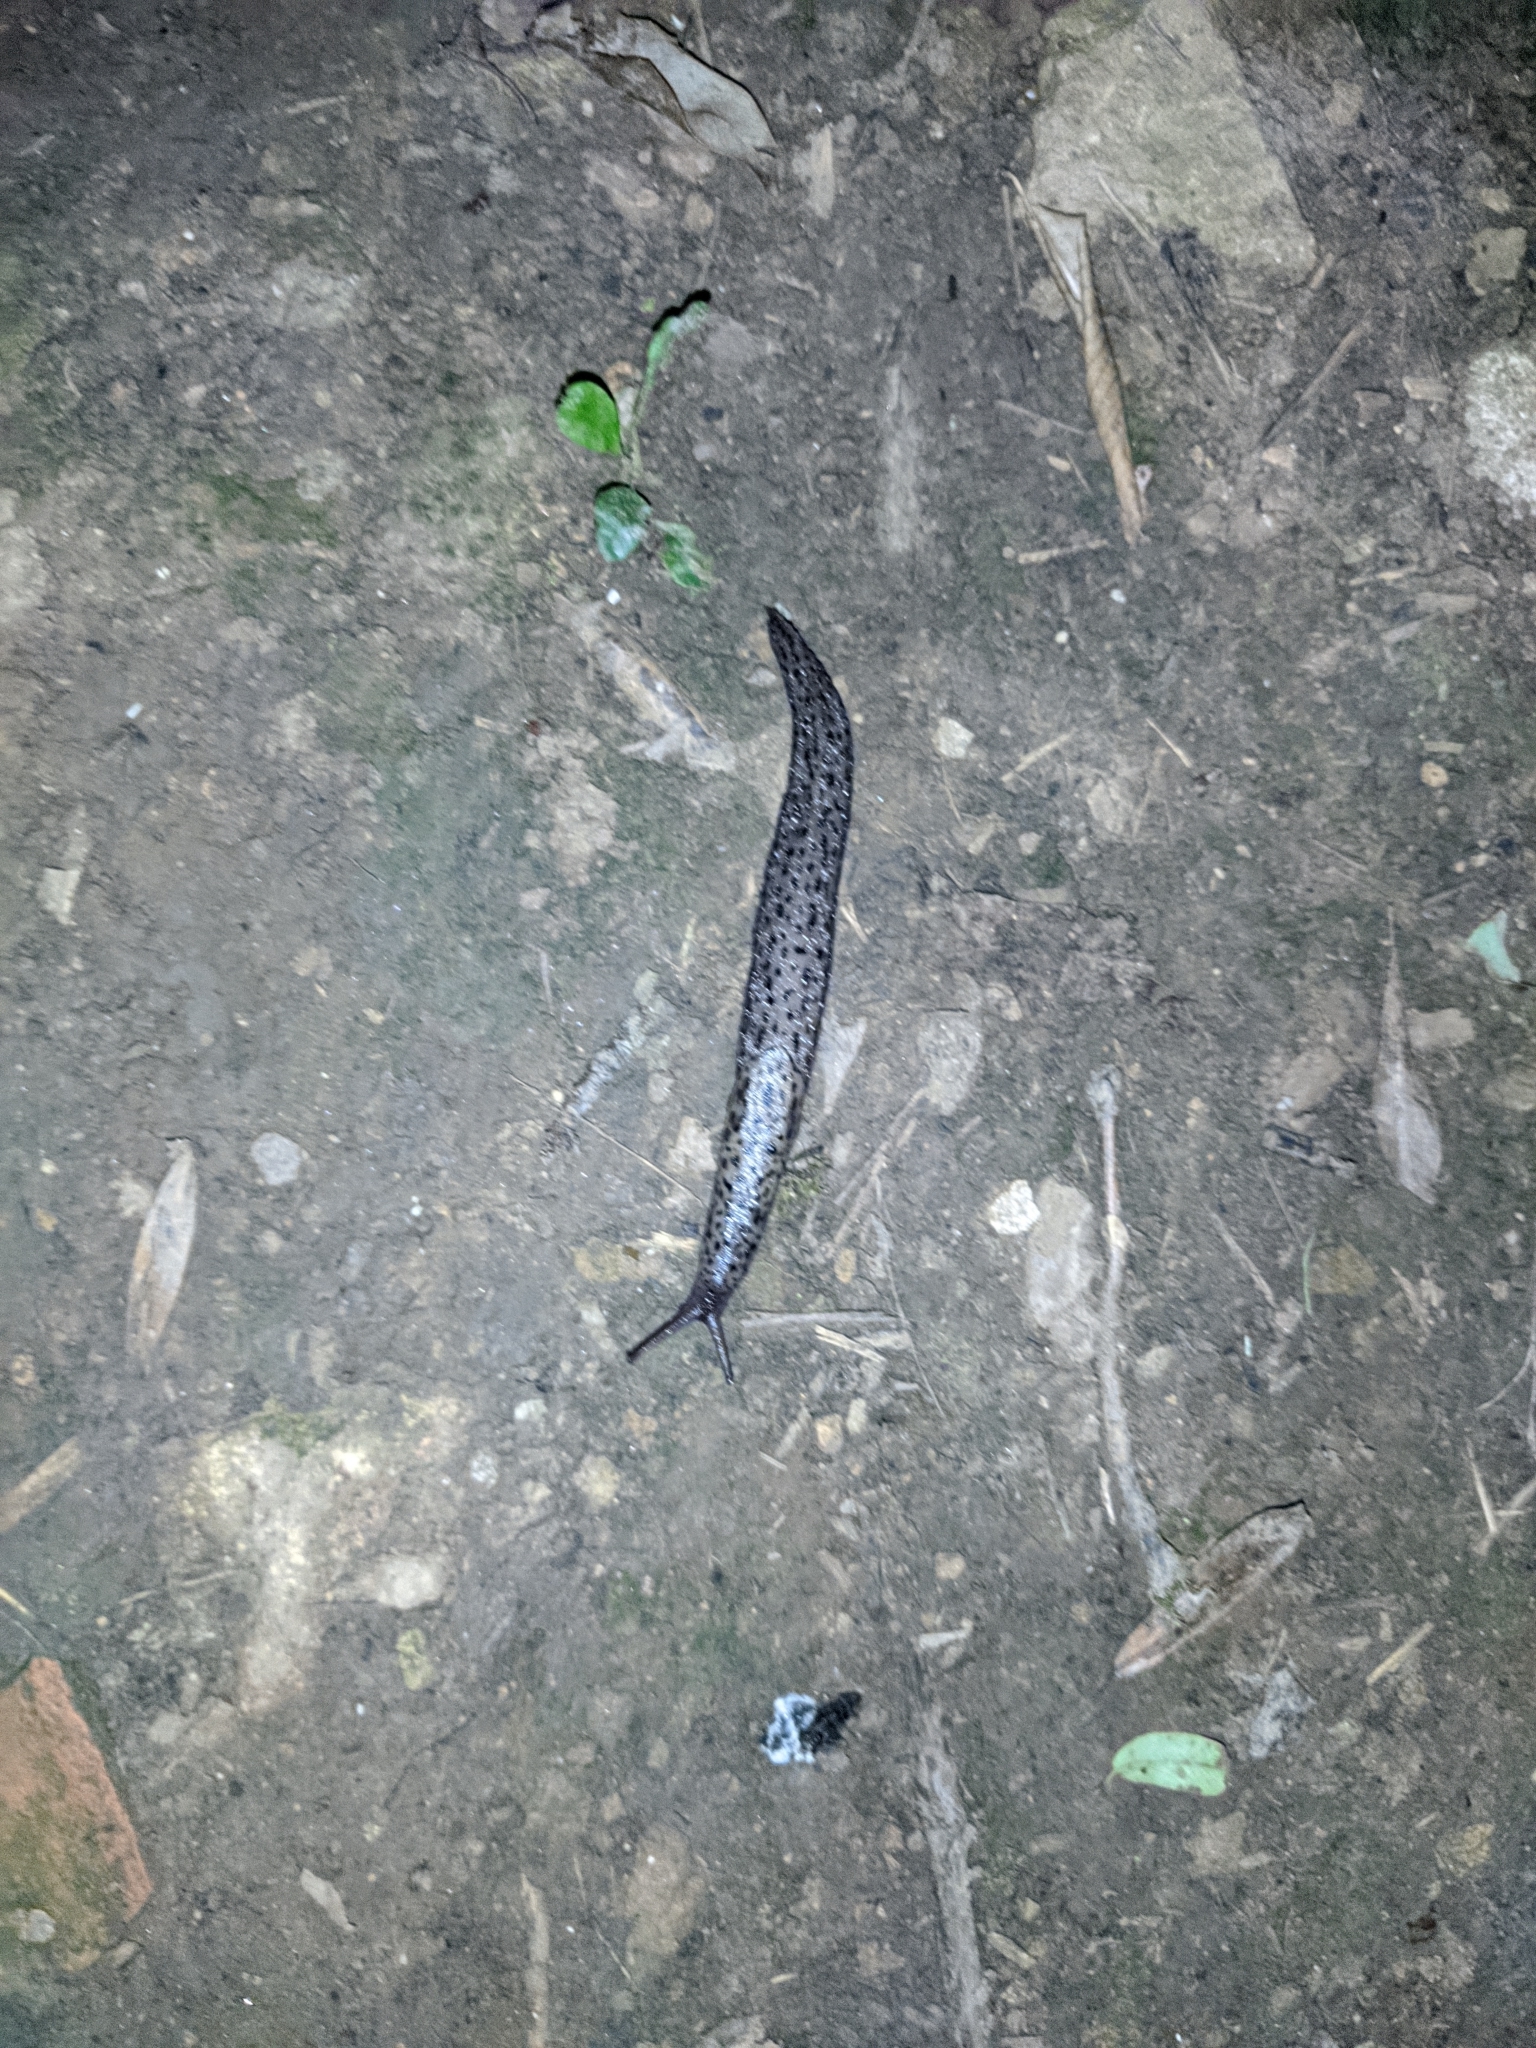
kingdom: Animalia
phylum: Mollusca
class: Gastropoda
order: Stylommatophora
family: Limacidae
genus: Limax
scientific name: Limax maximus
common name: Great grey slug
